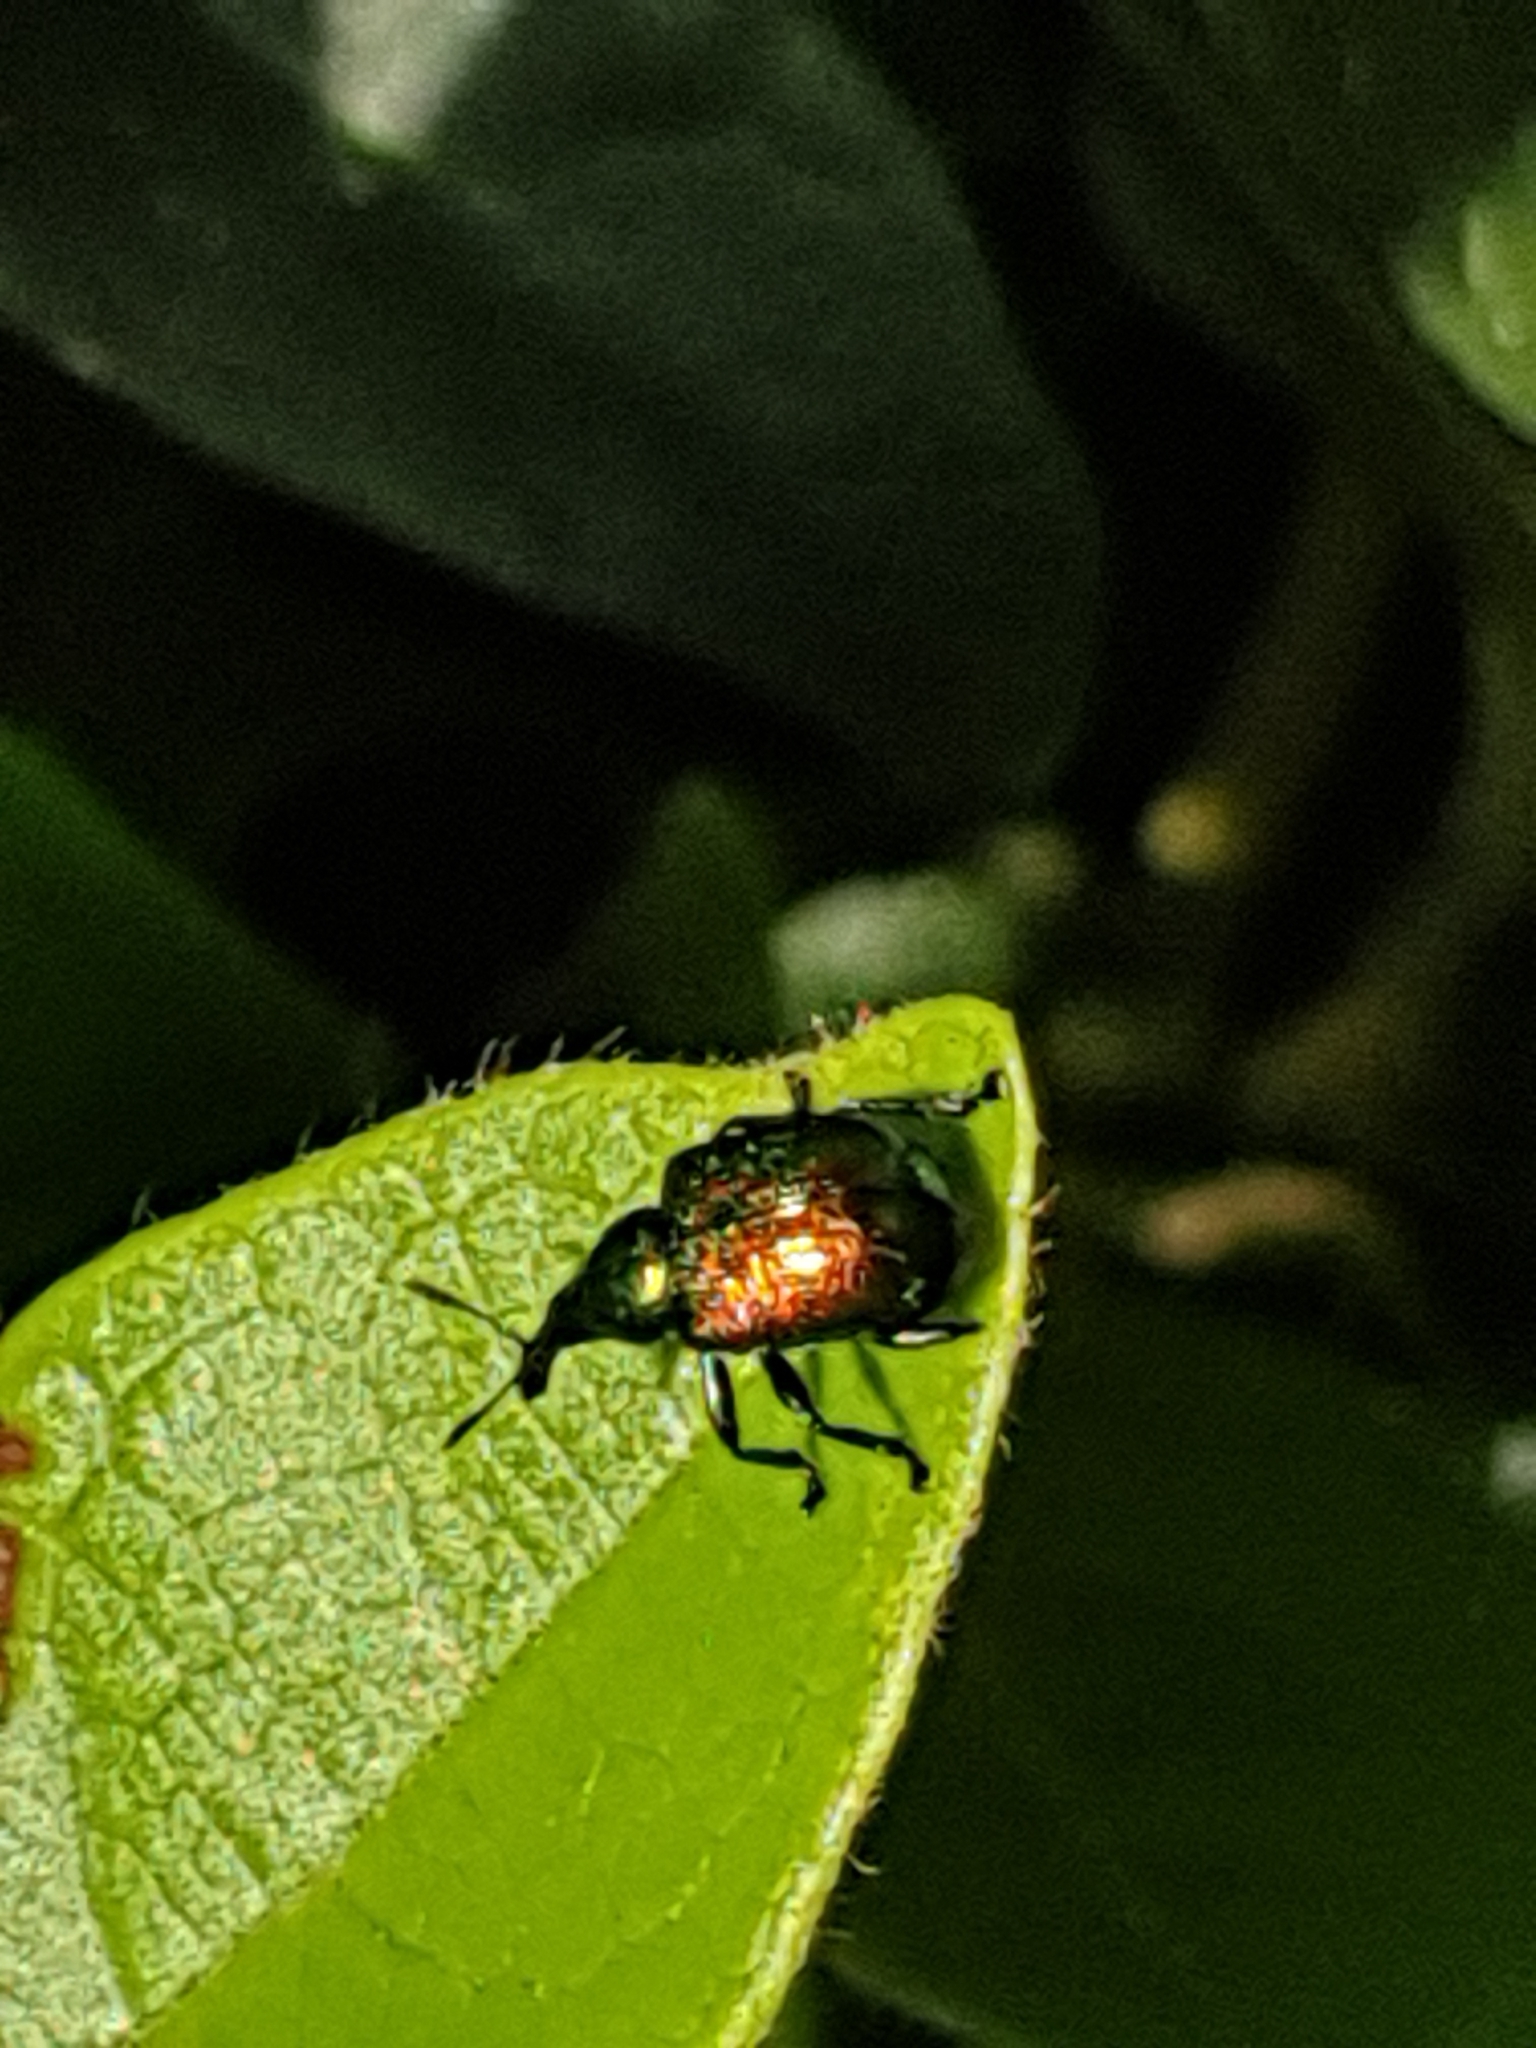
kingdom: Animalia
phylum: Arthropoda
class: Insecta
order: Coleoptera
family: Attelabidae
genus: Byctiscus
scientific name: Byctiscus populi
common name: Leaf-rolling weevil
